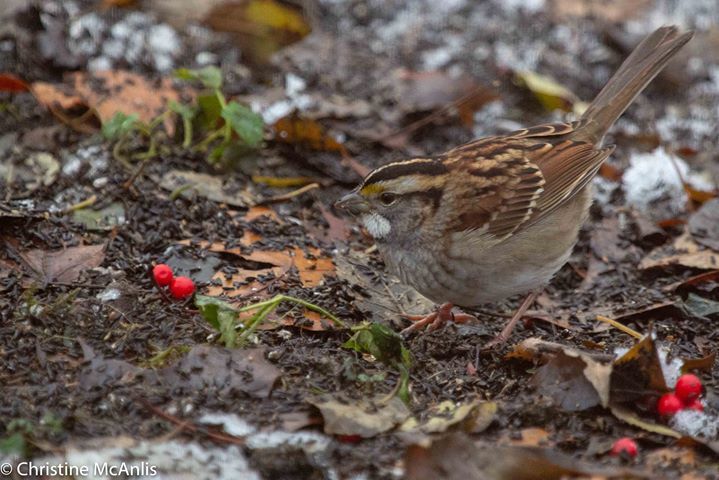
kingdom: Animalia
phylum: Chordata
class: Aves
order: Passeriformes
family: Passerellidae
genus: Zonotrichia
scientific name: Zonotrichia albicollis
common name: White-throated sparrow
